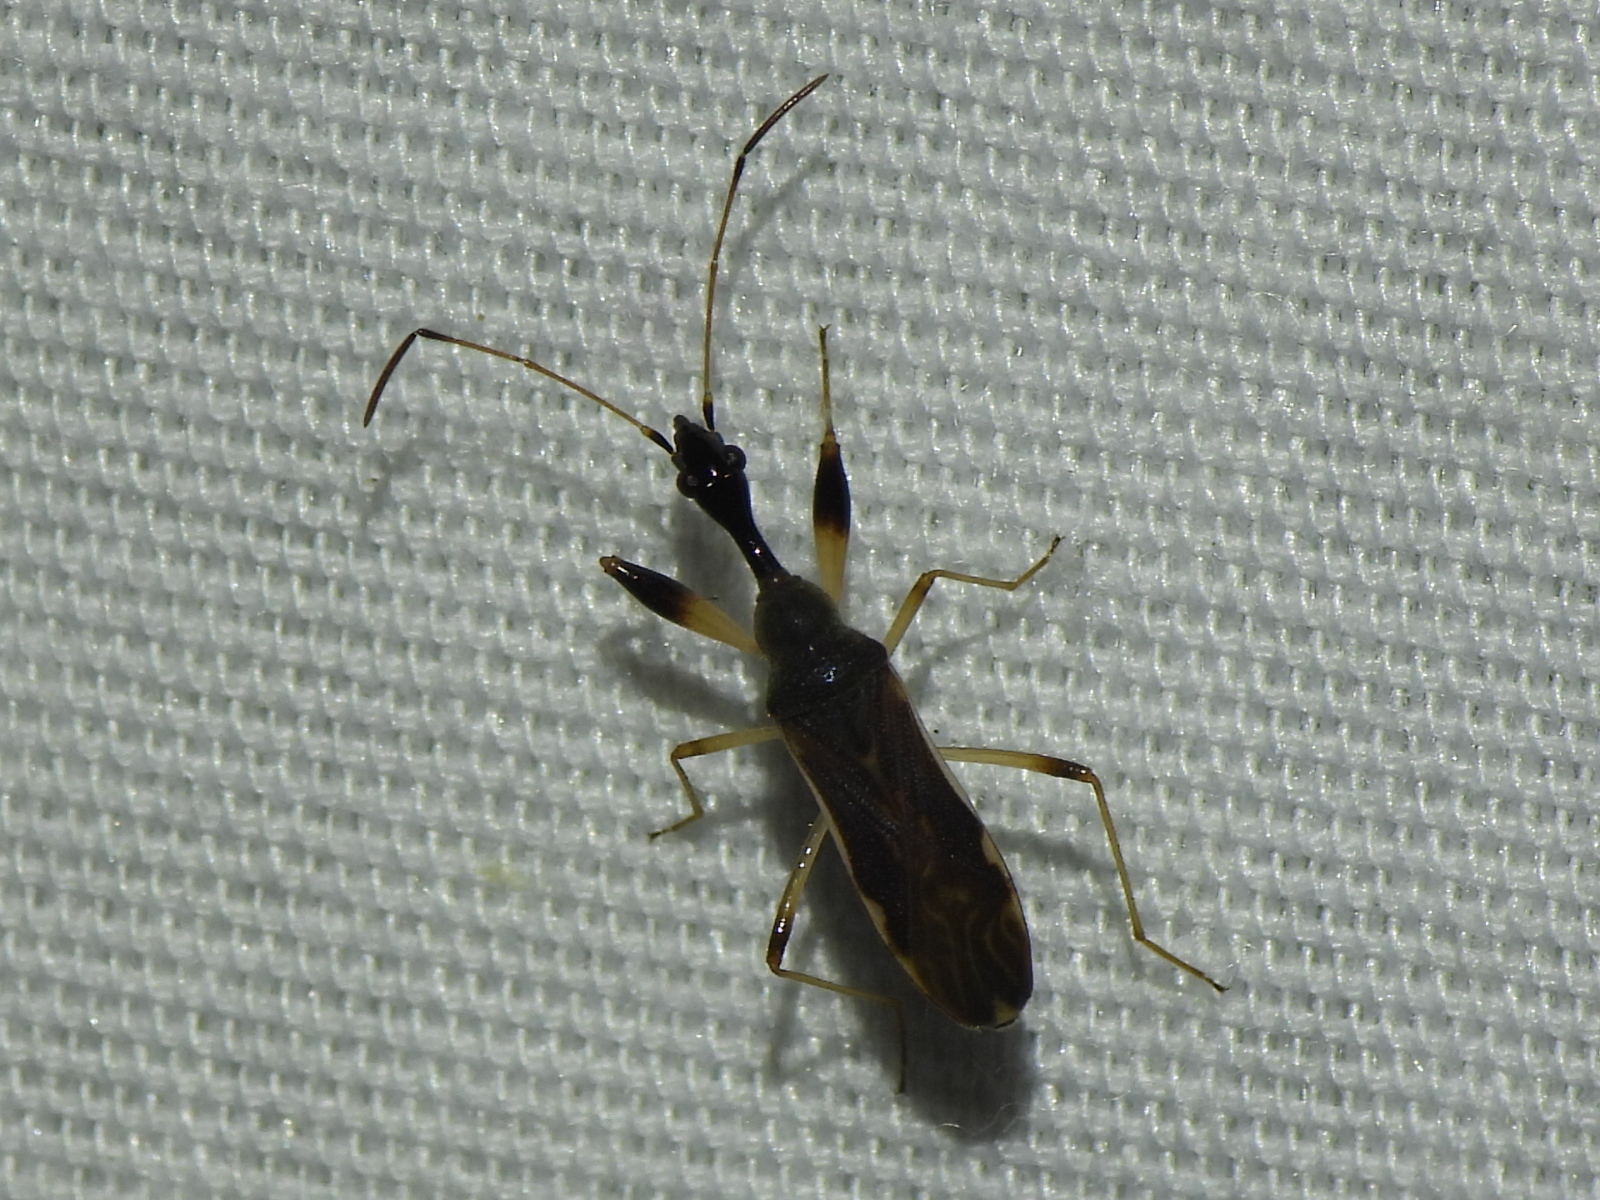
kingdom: Animalia
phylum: Arthropoda
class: Insecta
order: Hemiptera
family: Rhyparochromidae
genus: Myodocha
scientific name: Myodocha serripes
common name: Long-necked seed bug
